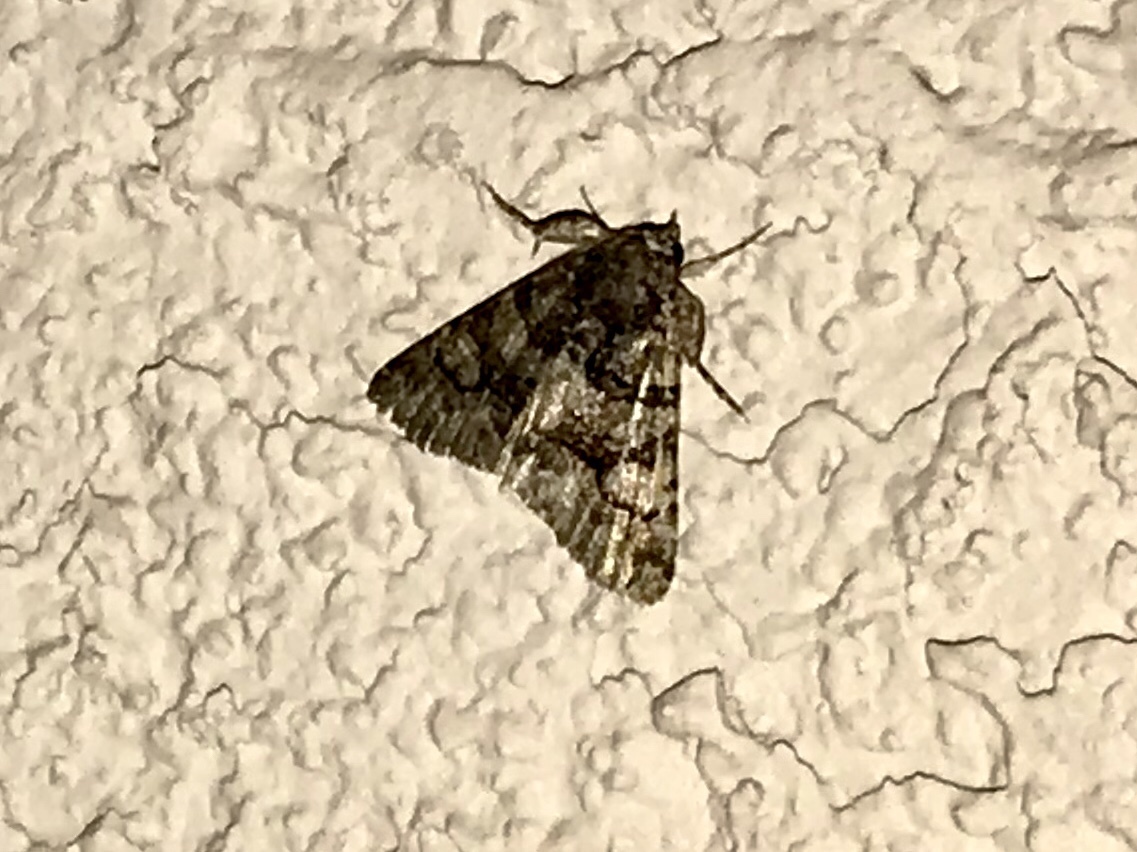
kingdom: Animalia
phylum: Arthropoda
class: Insecta
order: Lepidoptera
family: Erebidae
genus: Elousa
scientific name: Elousa mima
